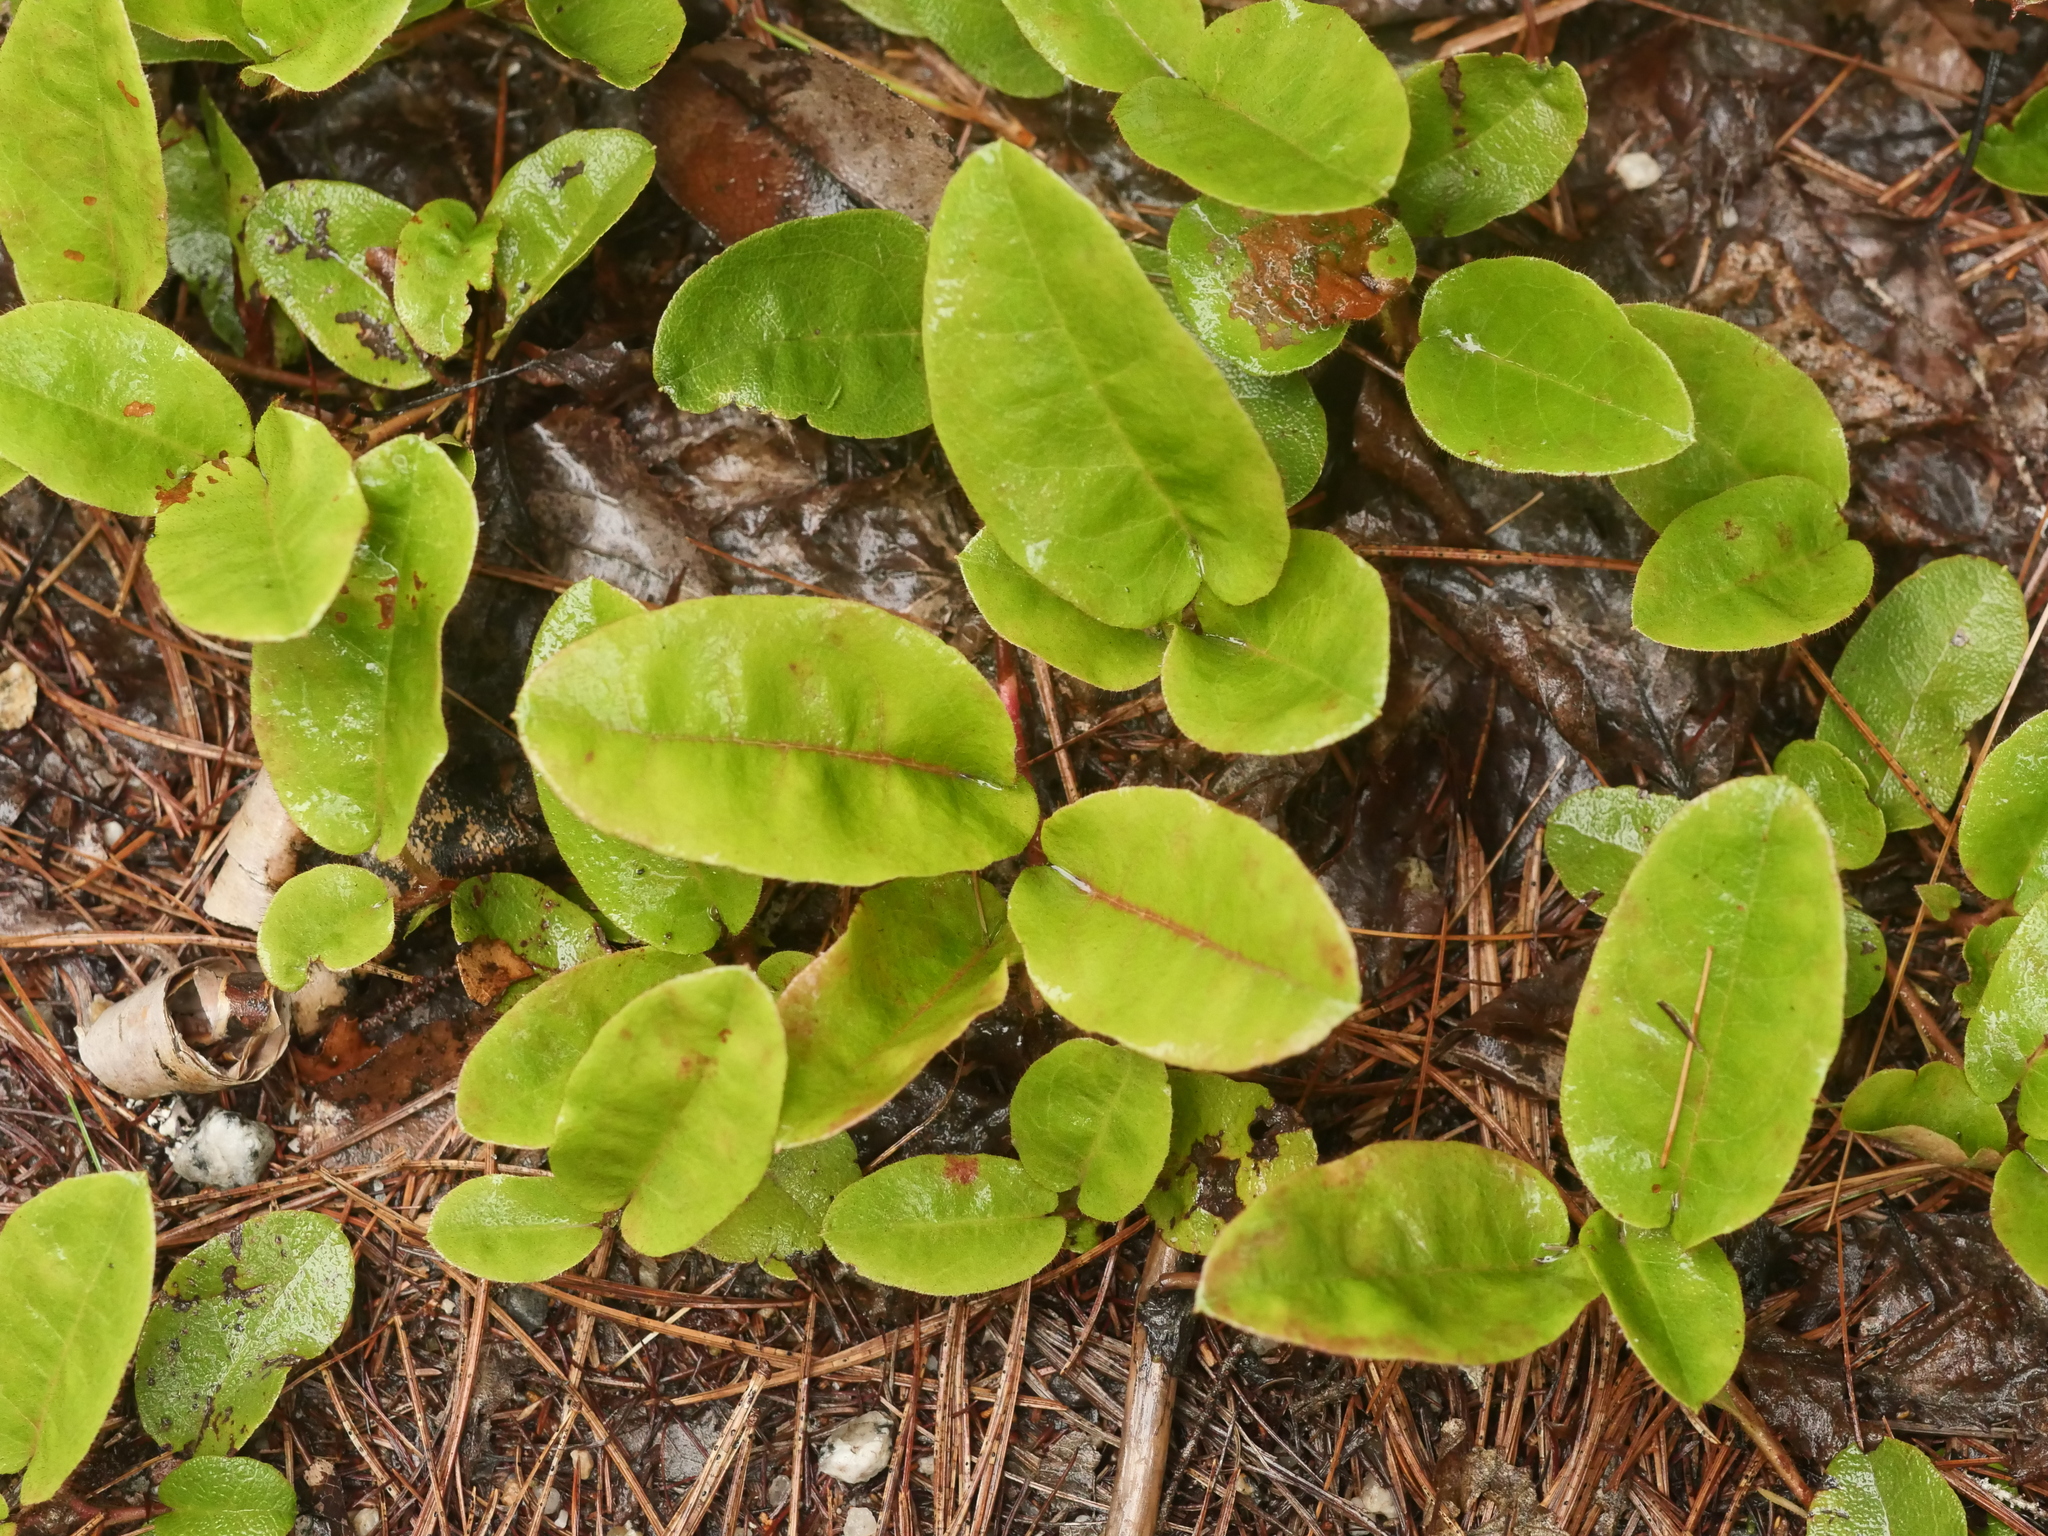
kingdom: Plantae
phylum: Tracheophyta
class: Magnoliopsida
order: Ericales
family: Ericaceae
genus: Epigaea
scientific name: Epigaea repens
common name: Gravelroot
